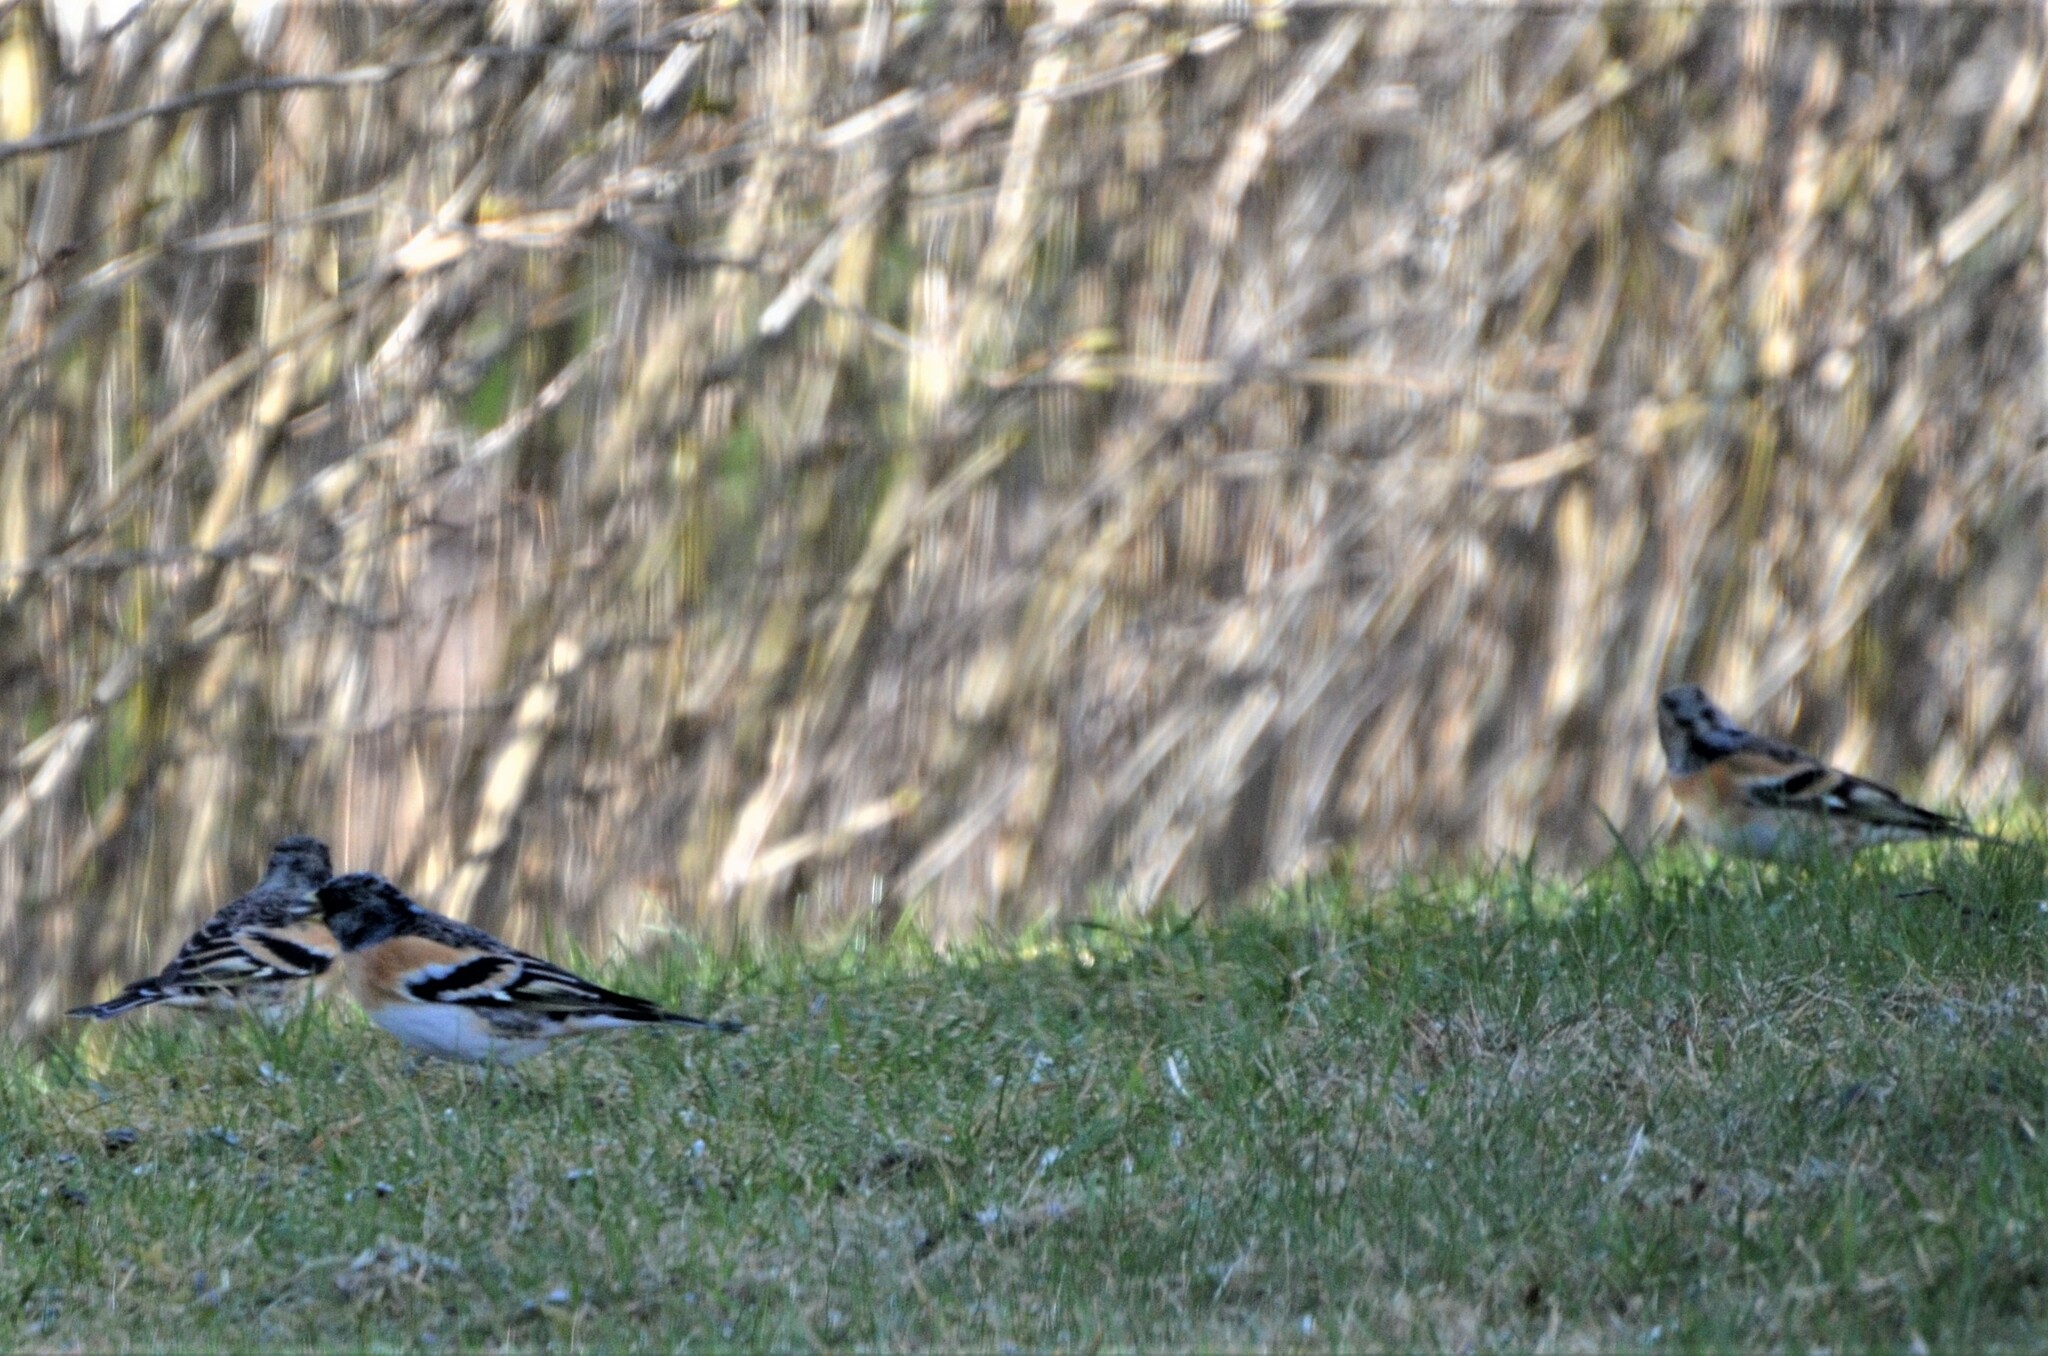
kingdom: Animalia
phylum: Chordata
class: Aves
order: Passeriformes
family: Fringillidae
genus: Fringilla
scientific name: Fringilla montifringilla
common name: Brambling
